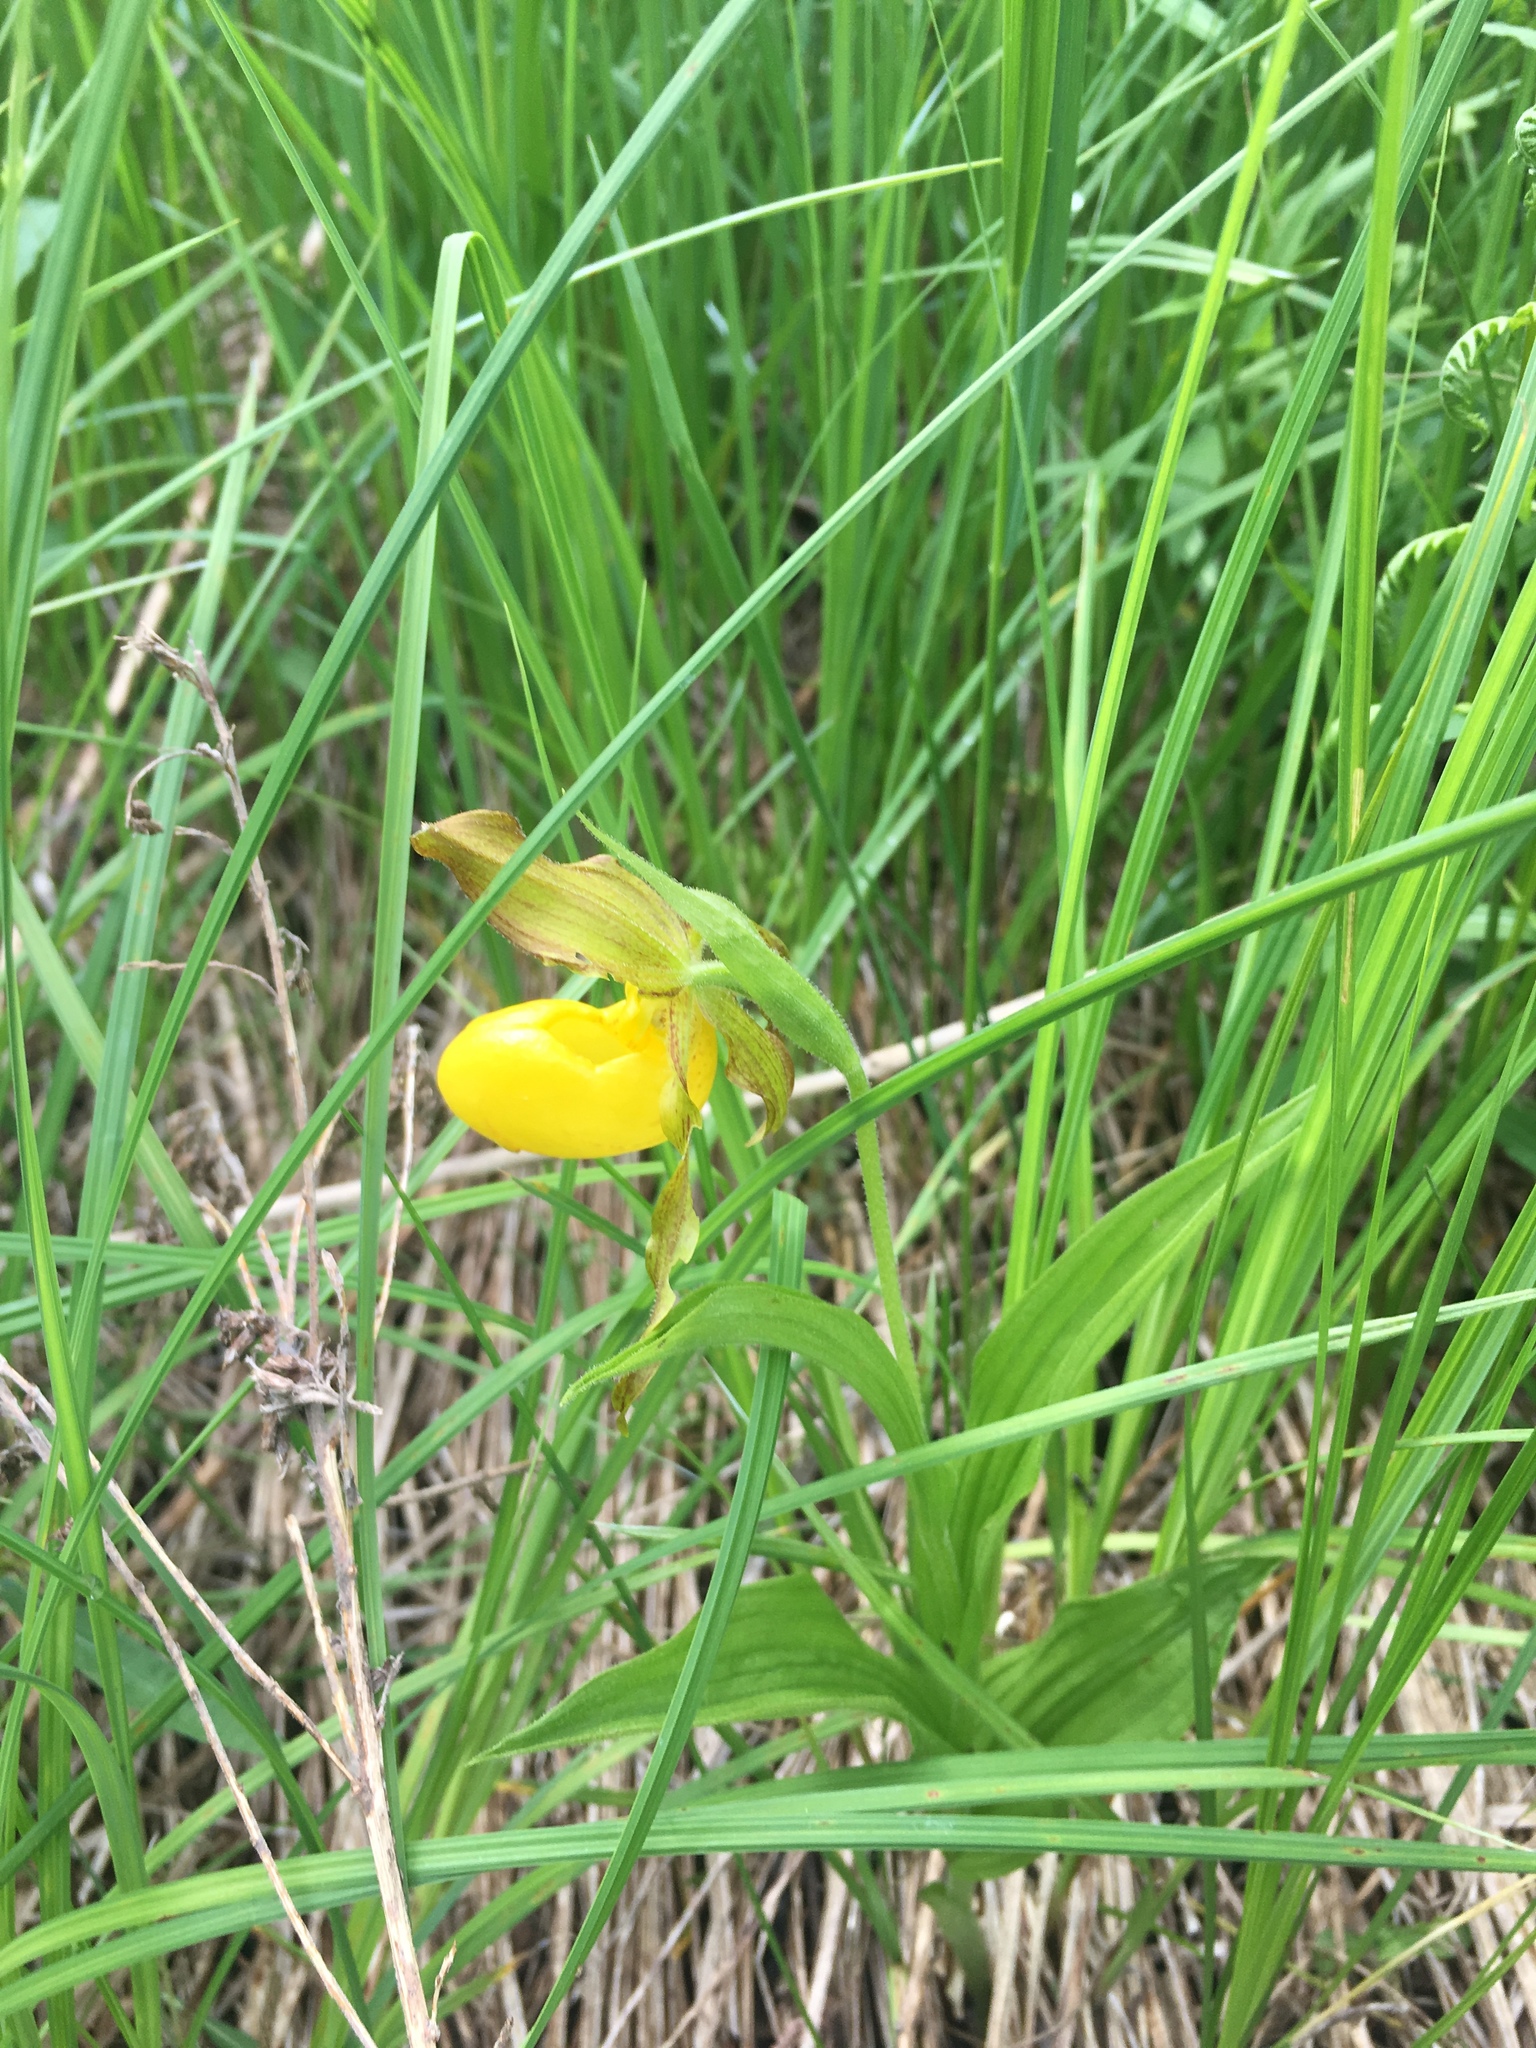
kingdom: Plantae
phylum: Tracheophyta
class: Liliopsida
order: Asparagales
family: Orchidaceae
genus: Cypripedium
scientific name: Cypripedium parviflorum
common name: American yellow lady's-slipper
